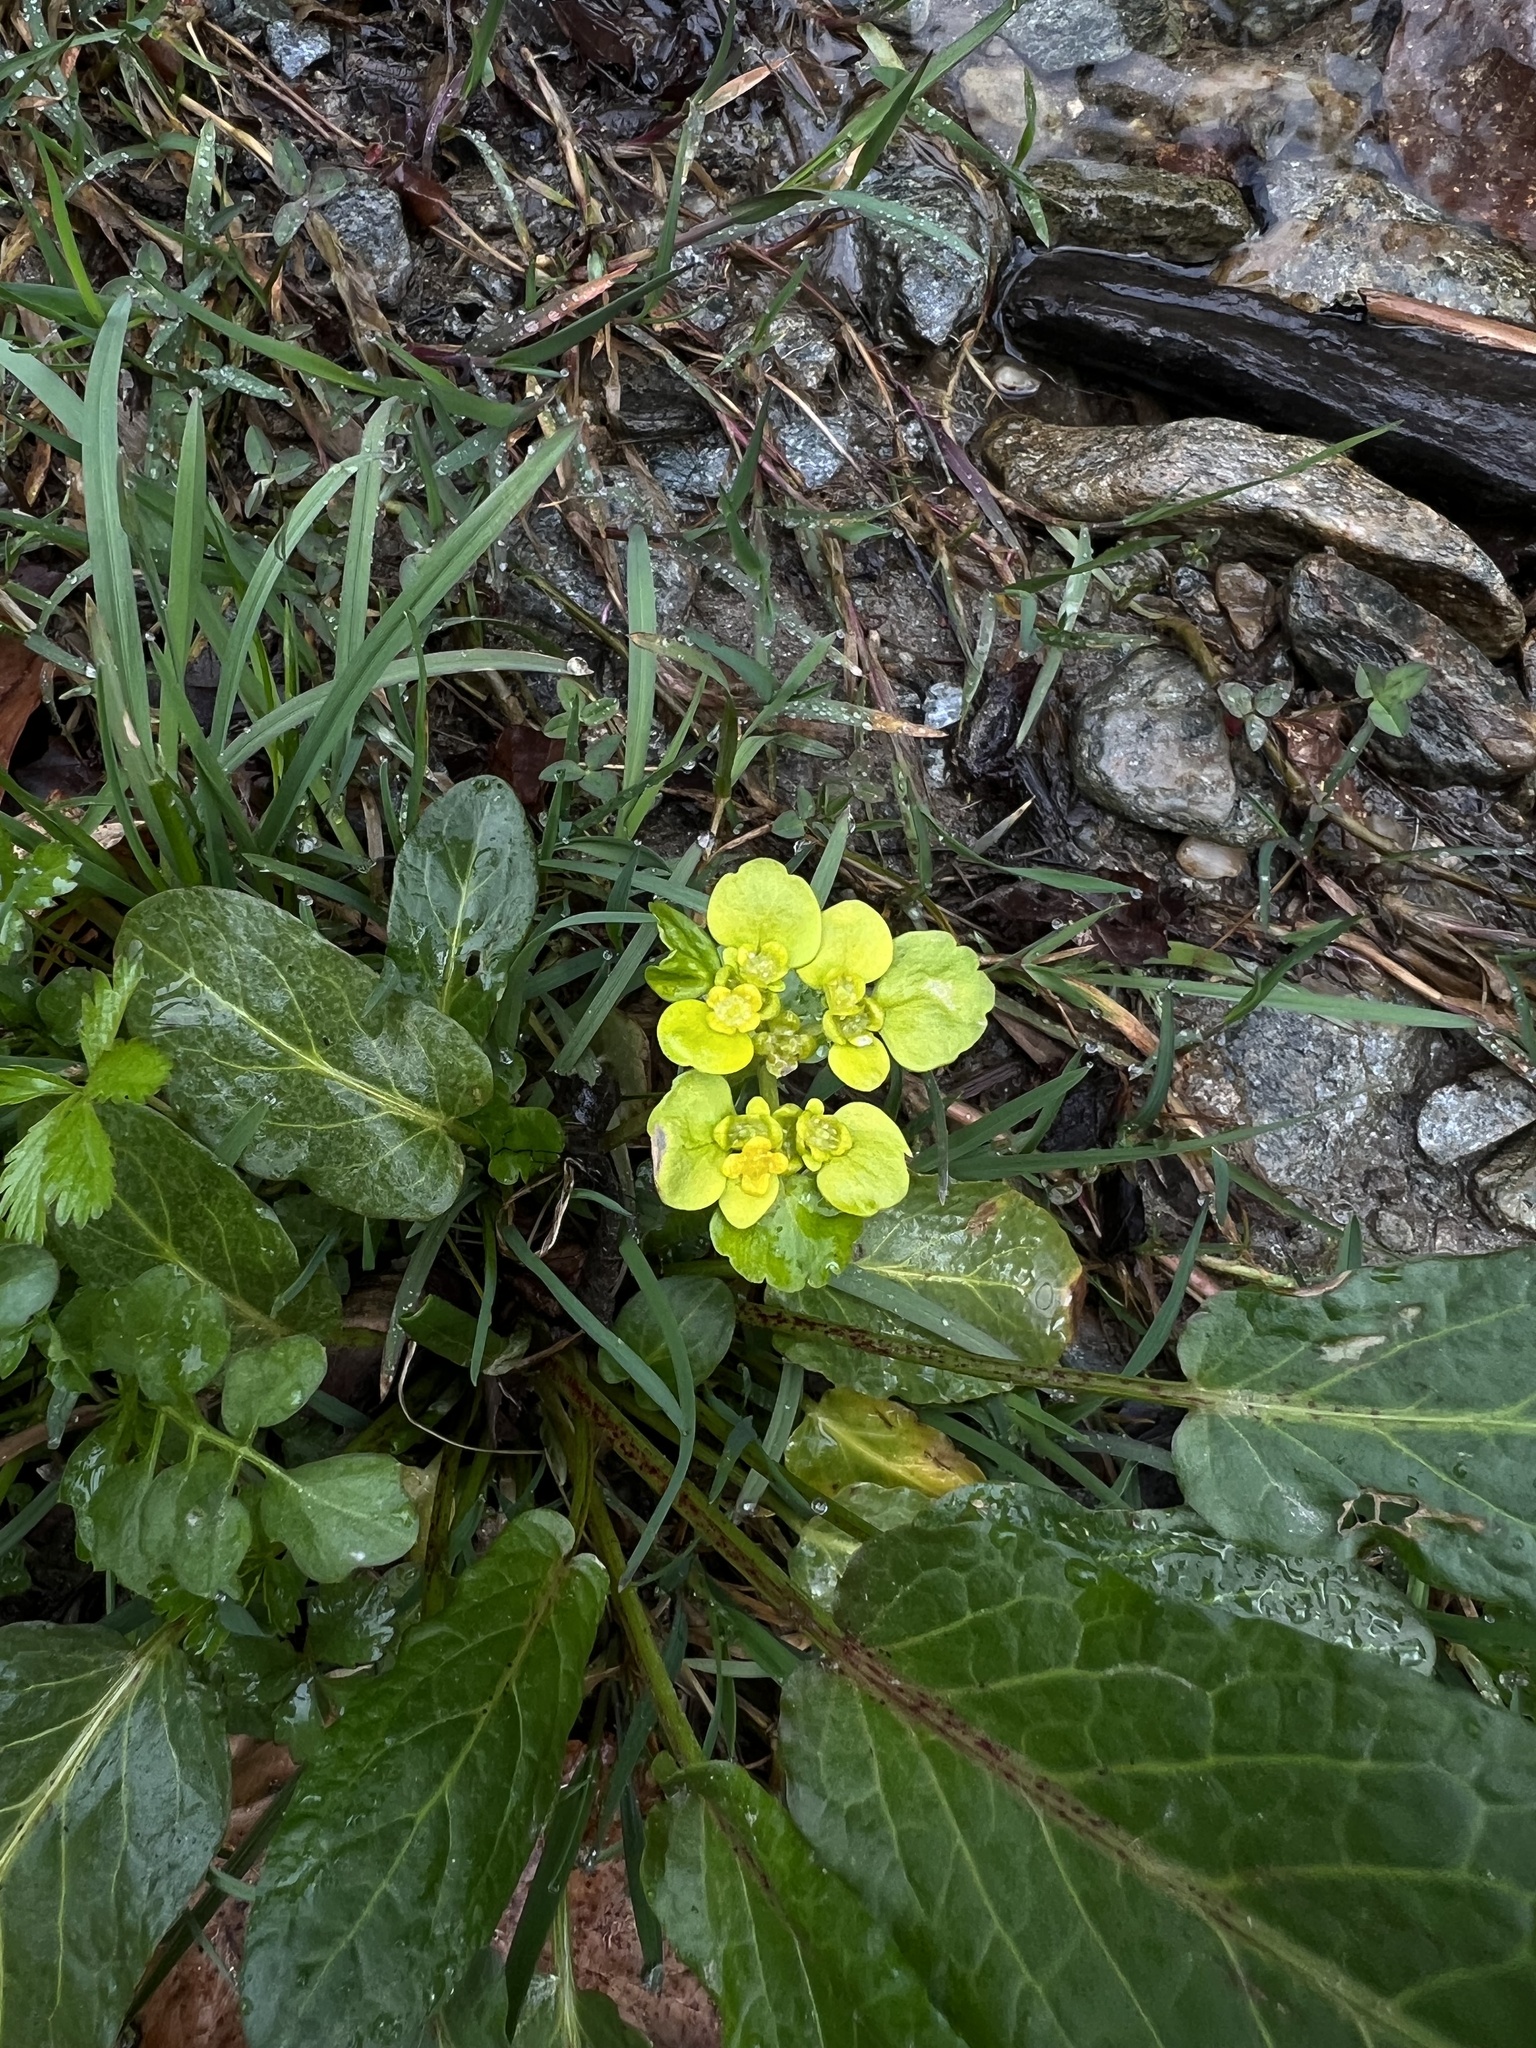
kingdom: Plantae
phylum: Tracheophyta
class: Magnoliopsida
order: Saxifragales
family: Saxifragaceae
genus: Chrysosplenium
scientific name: Chrysosplenium alternifolium
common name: Alternate-leaved golden-saxifrage
